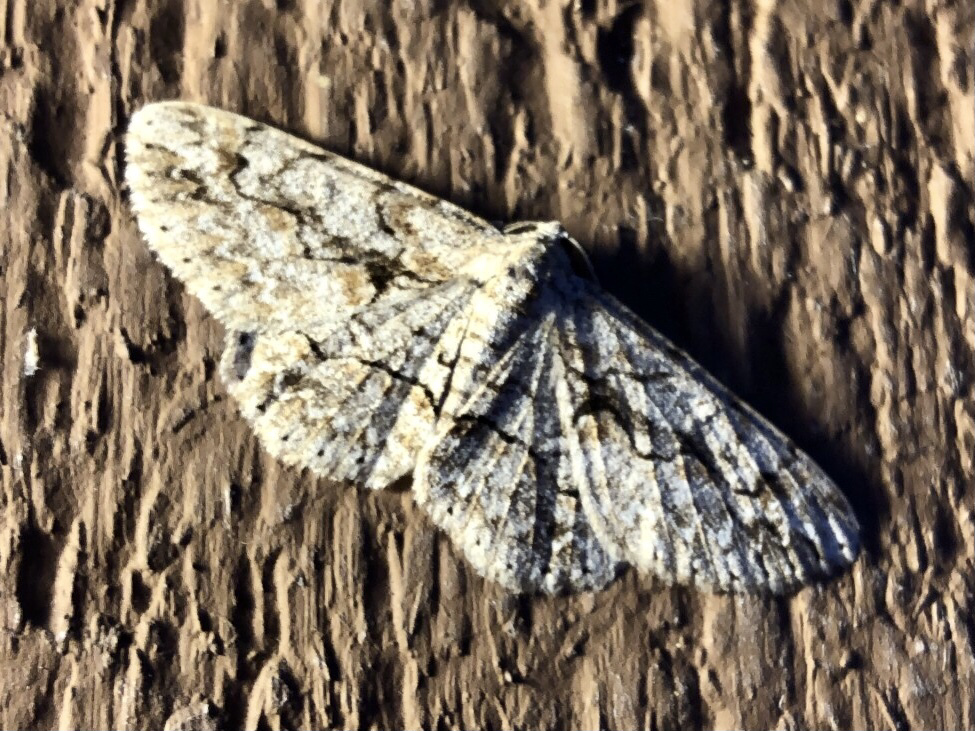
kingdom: Animalia
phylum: Arthropoda
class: Insecta
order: Lepidoptera
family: Geometridae
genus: Iridopsis
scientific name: Iridopsis defectaria
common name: Brown-shaded gray
